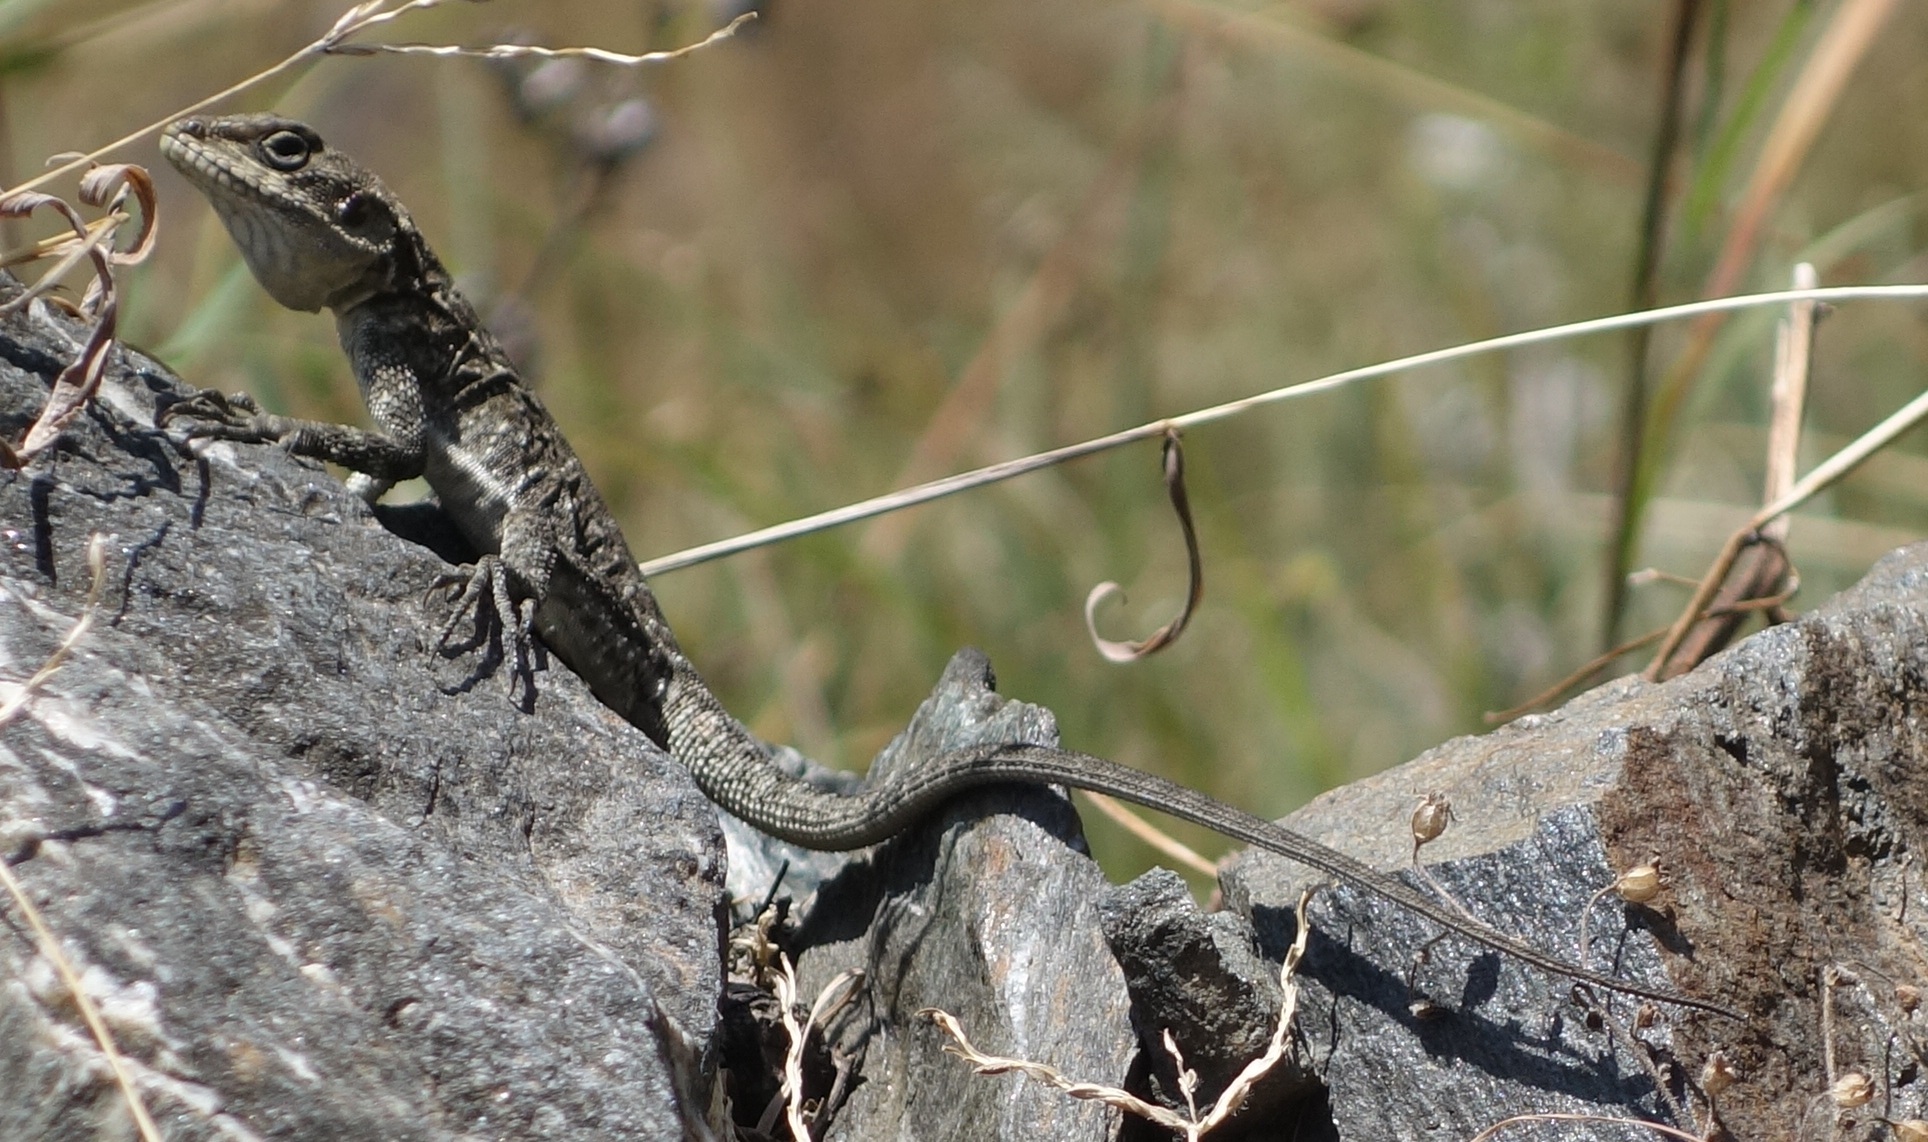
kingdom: Animalia
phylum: Chordata
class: Squamata
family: Agamidae
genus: Laudakia
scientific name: Laudakia tuberculata
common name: Kashmir rock agama
